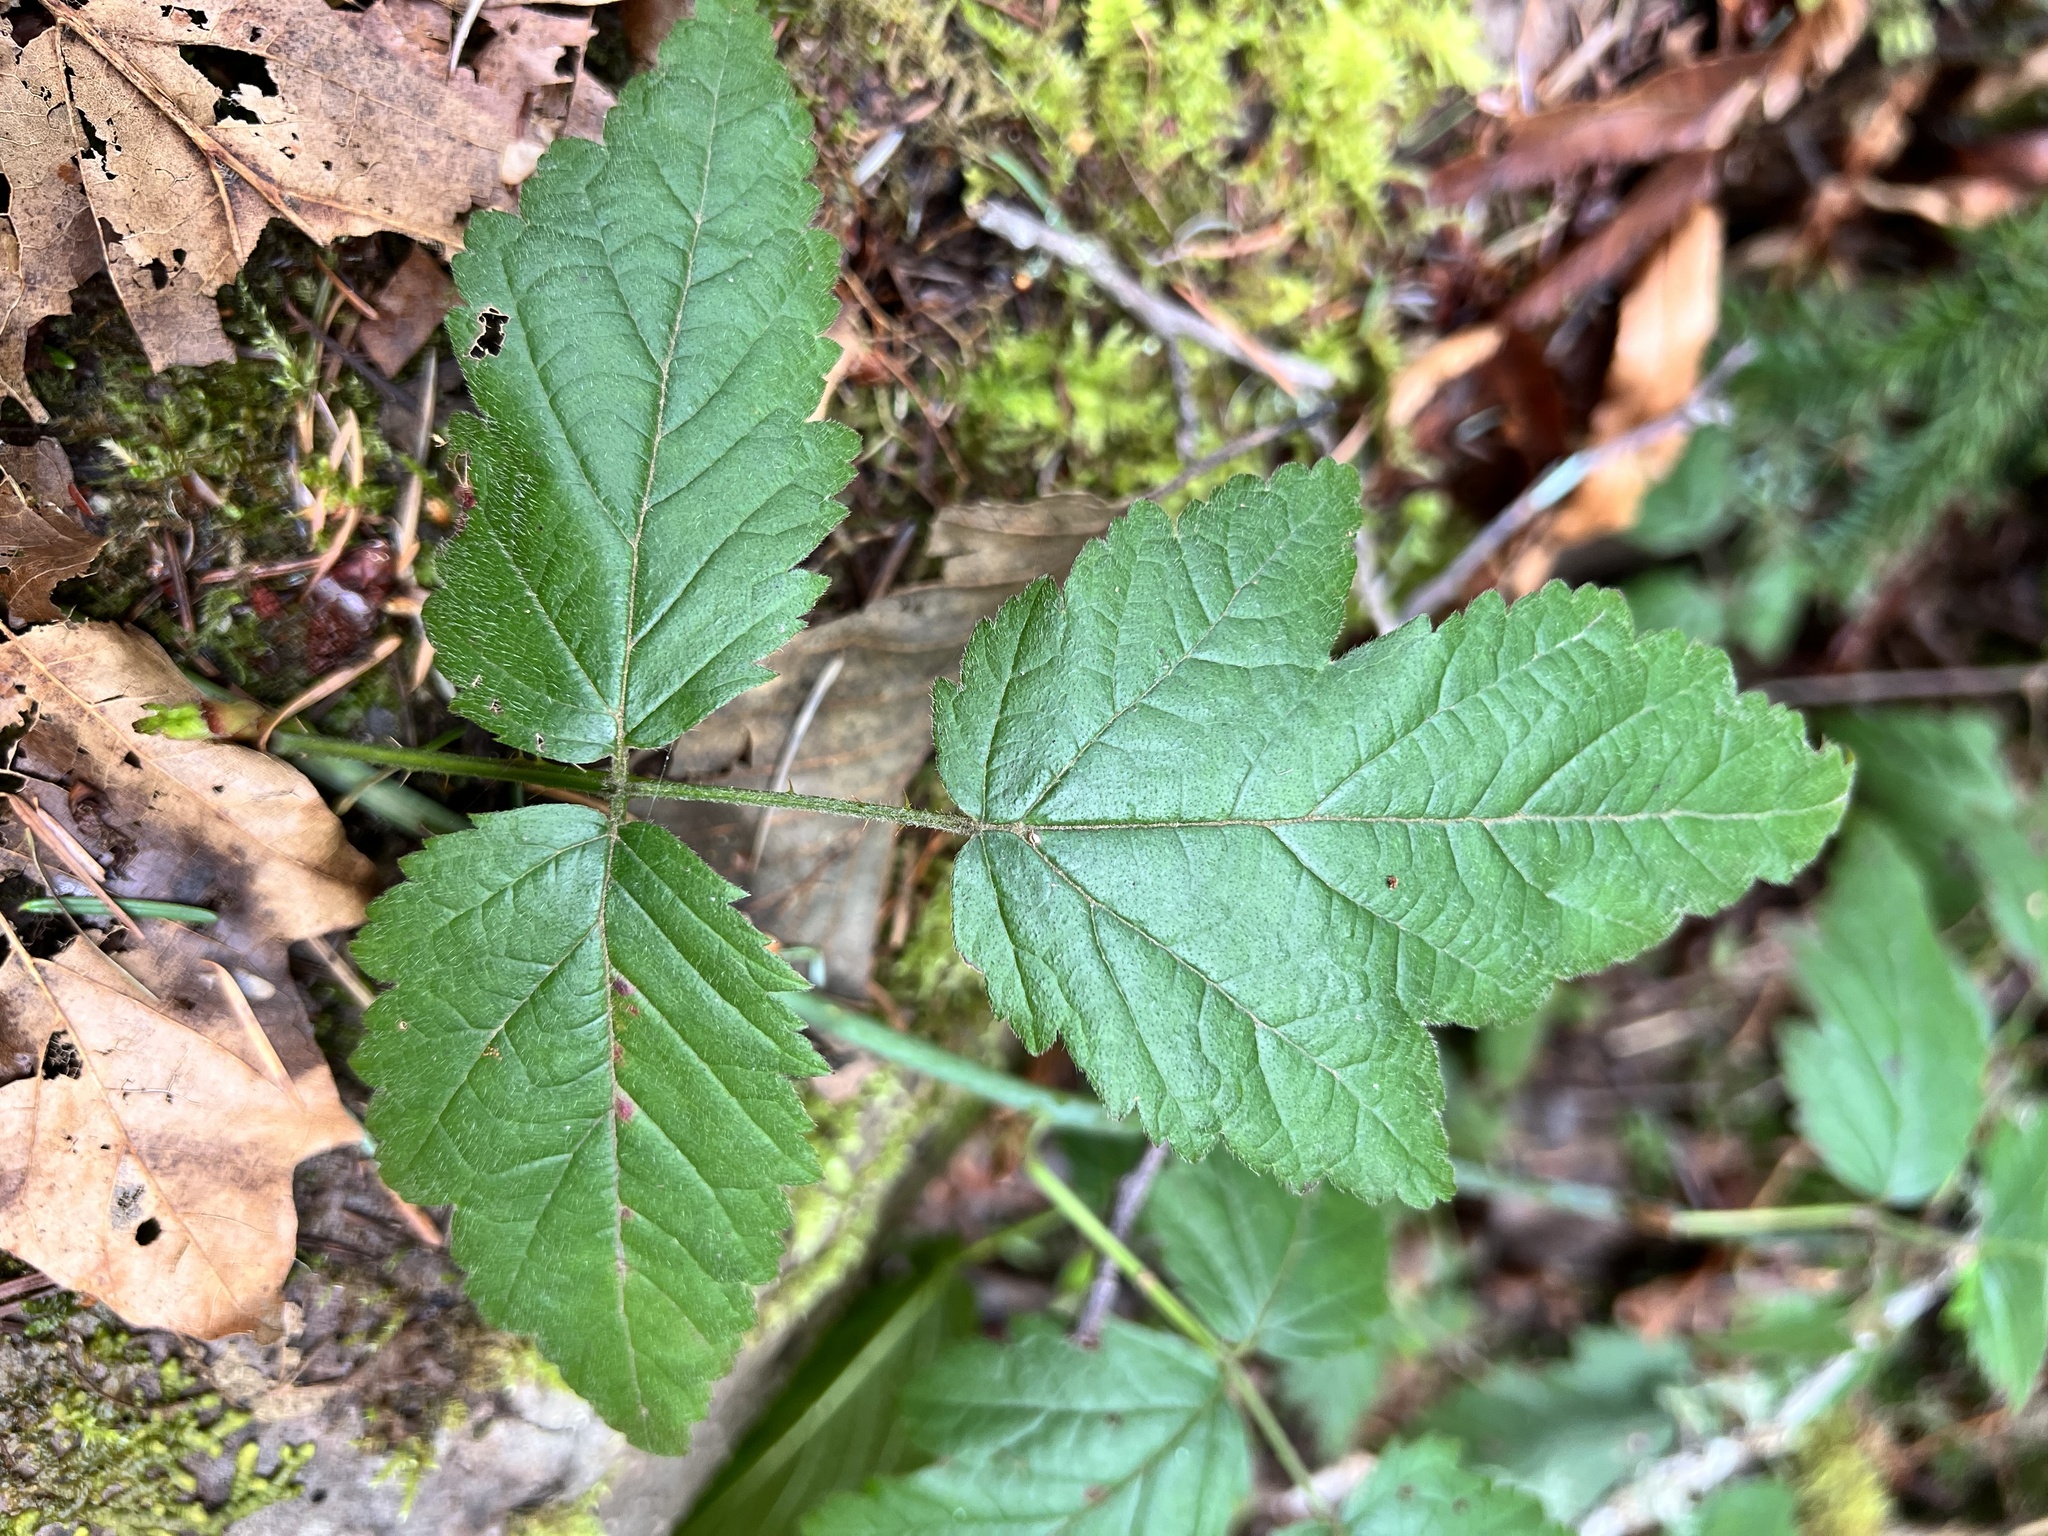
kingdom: Plantae
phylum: Tracheophyta
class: Magnoliopsida
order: Rosales
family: Rosaceae
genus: Rubus
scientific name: Rubus ursinus
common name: Pacific blackberry
